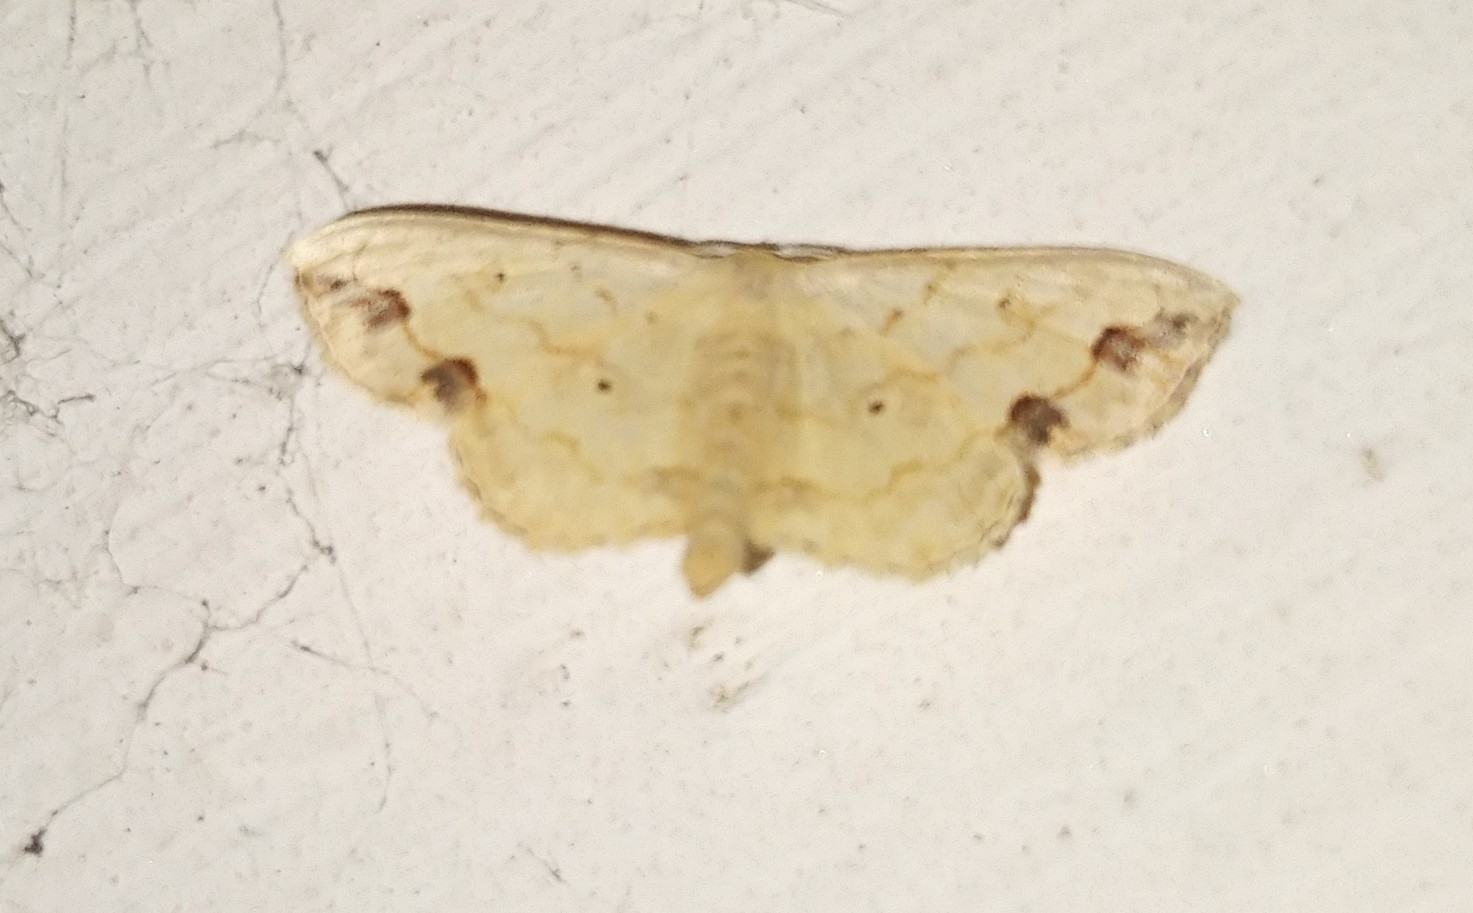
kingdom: Animalia
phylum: Arthropoda
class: Insecta
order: Lepidoptera
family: Geometridae
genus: Scopula
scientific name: Scopula addictaria
